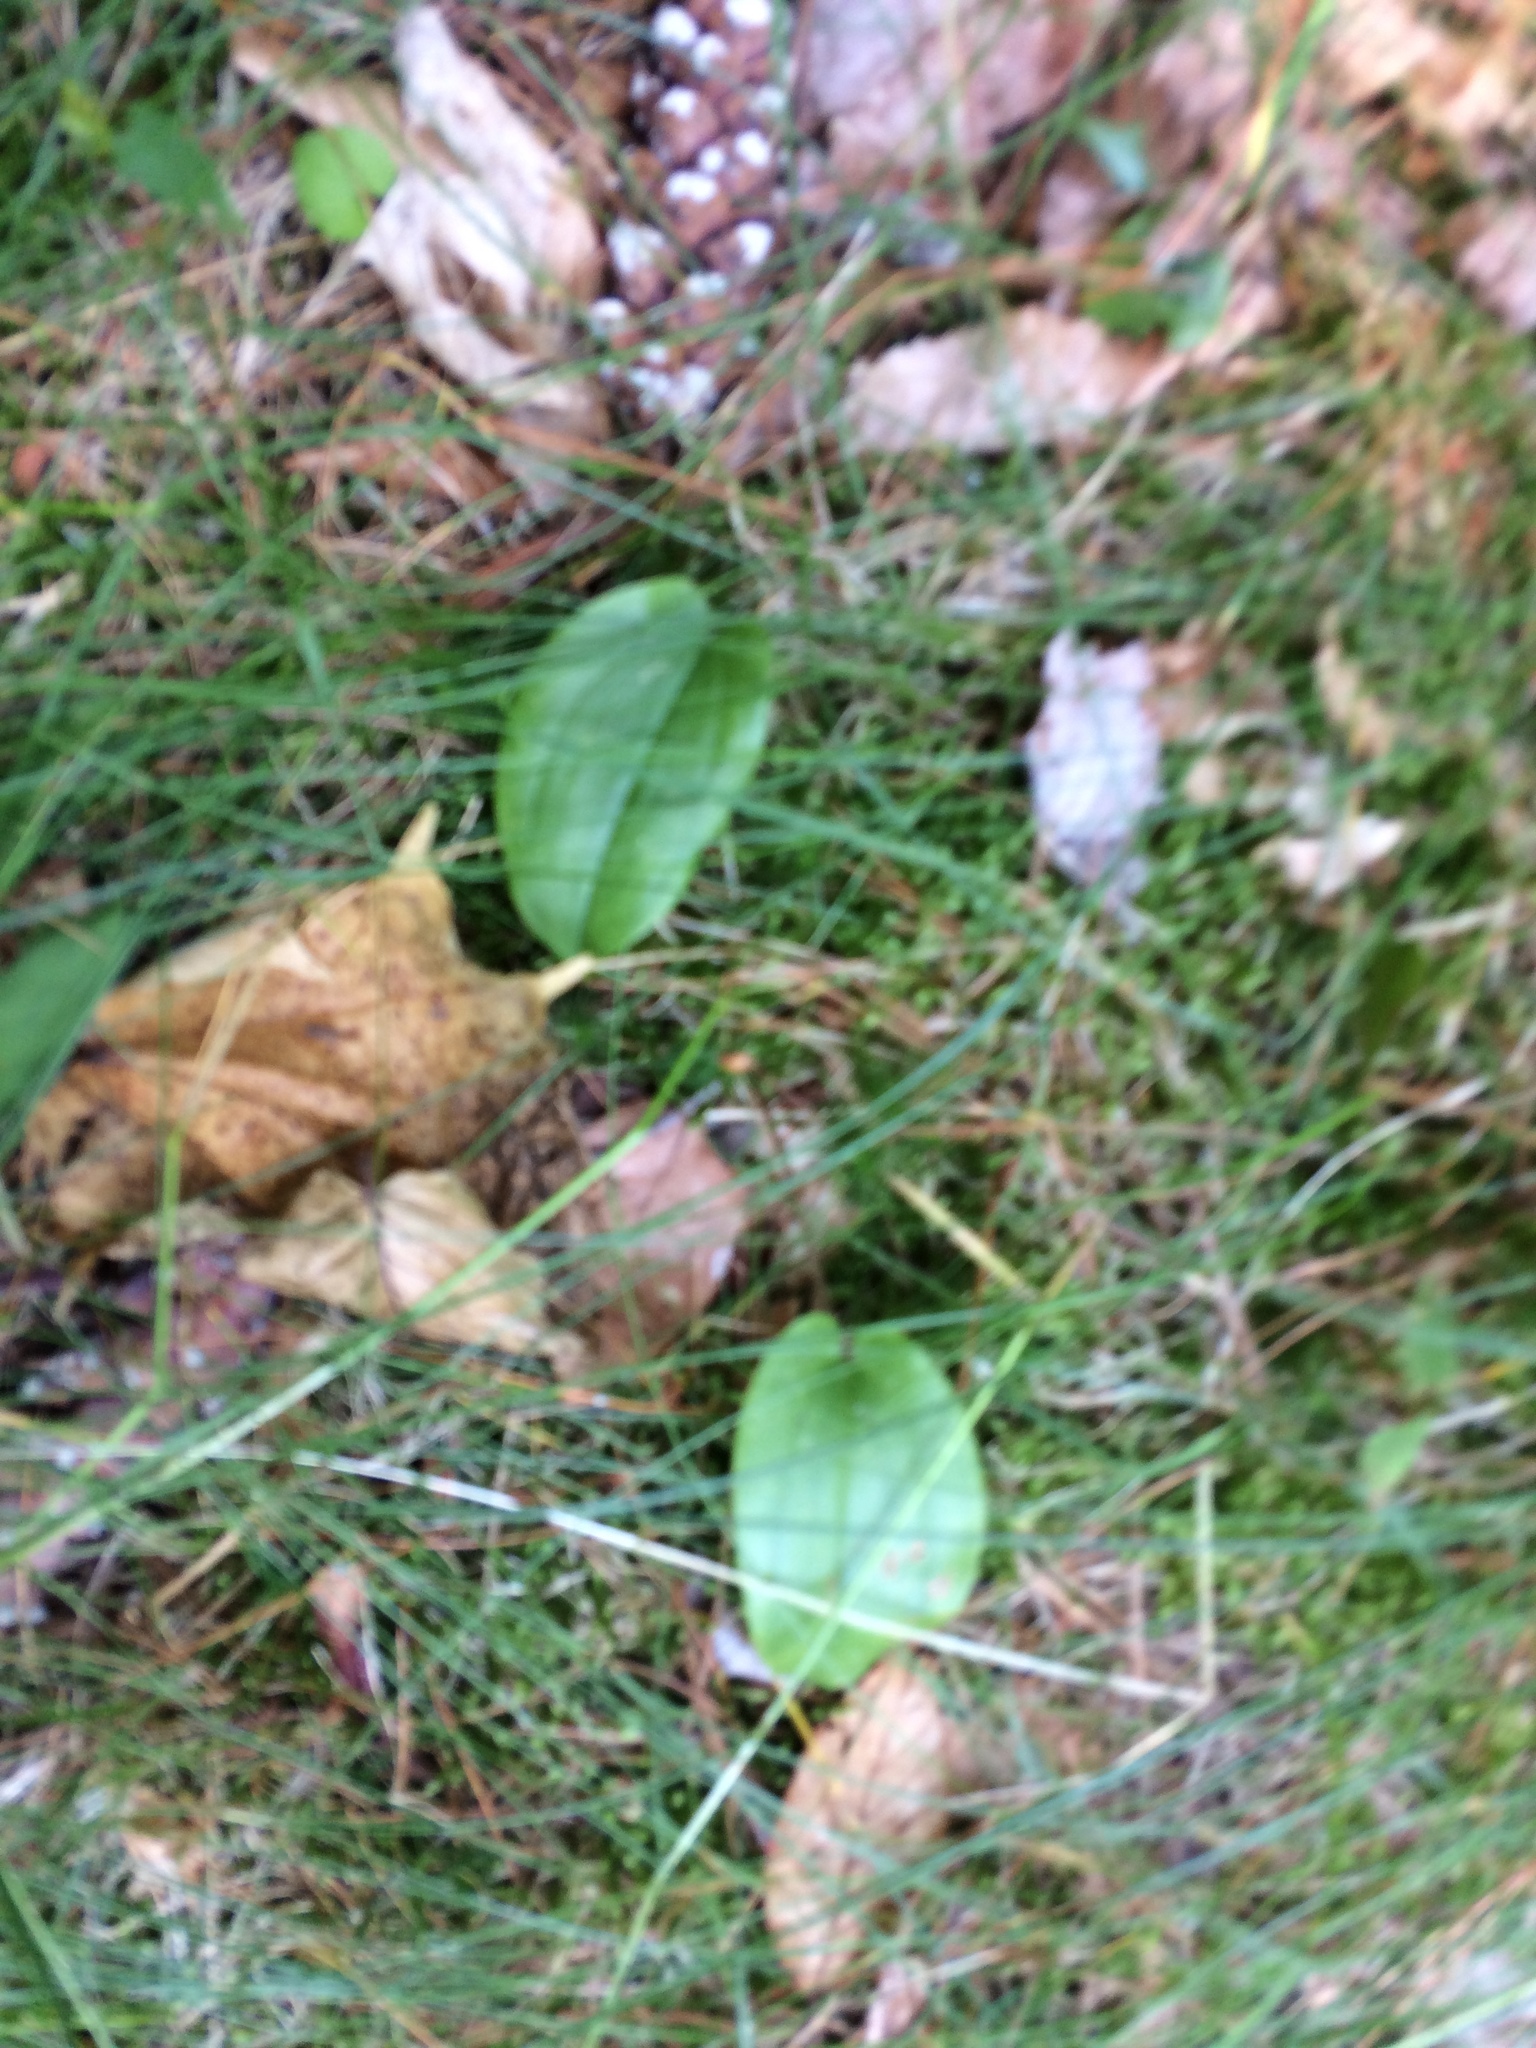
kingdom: Plantae
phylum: Tracheophyta
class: Liliopsida
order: Asparagales
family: Asparagaceae
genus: Maianthemum
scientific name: Maianthemum canadense
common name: False lily-of-the-valley
